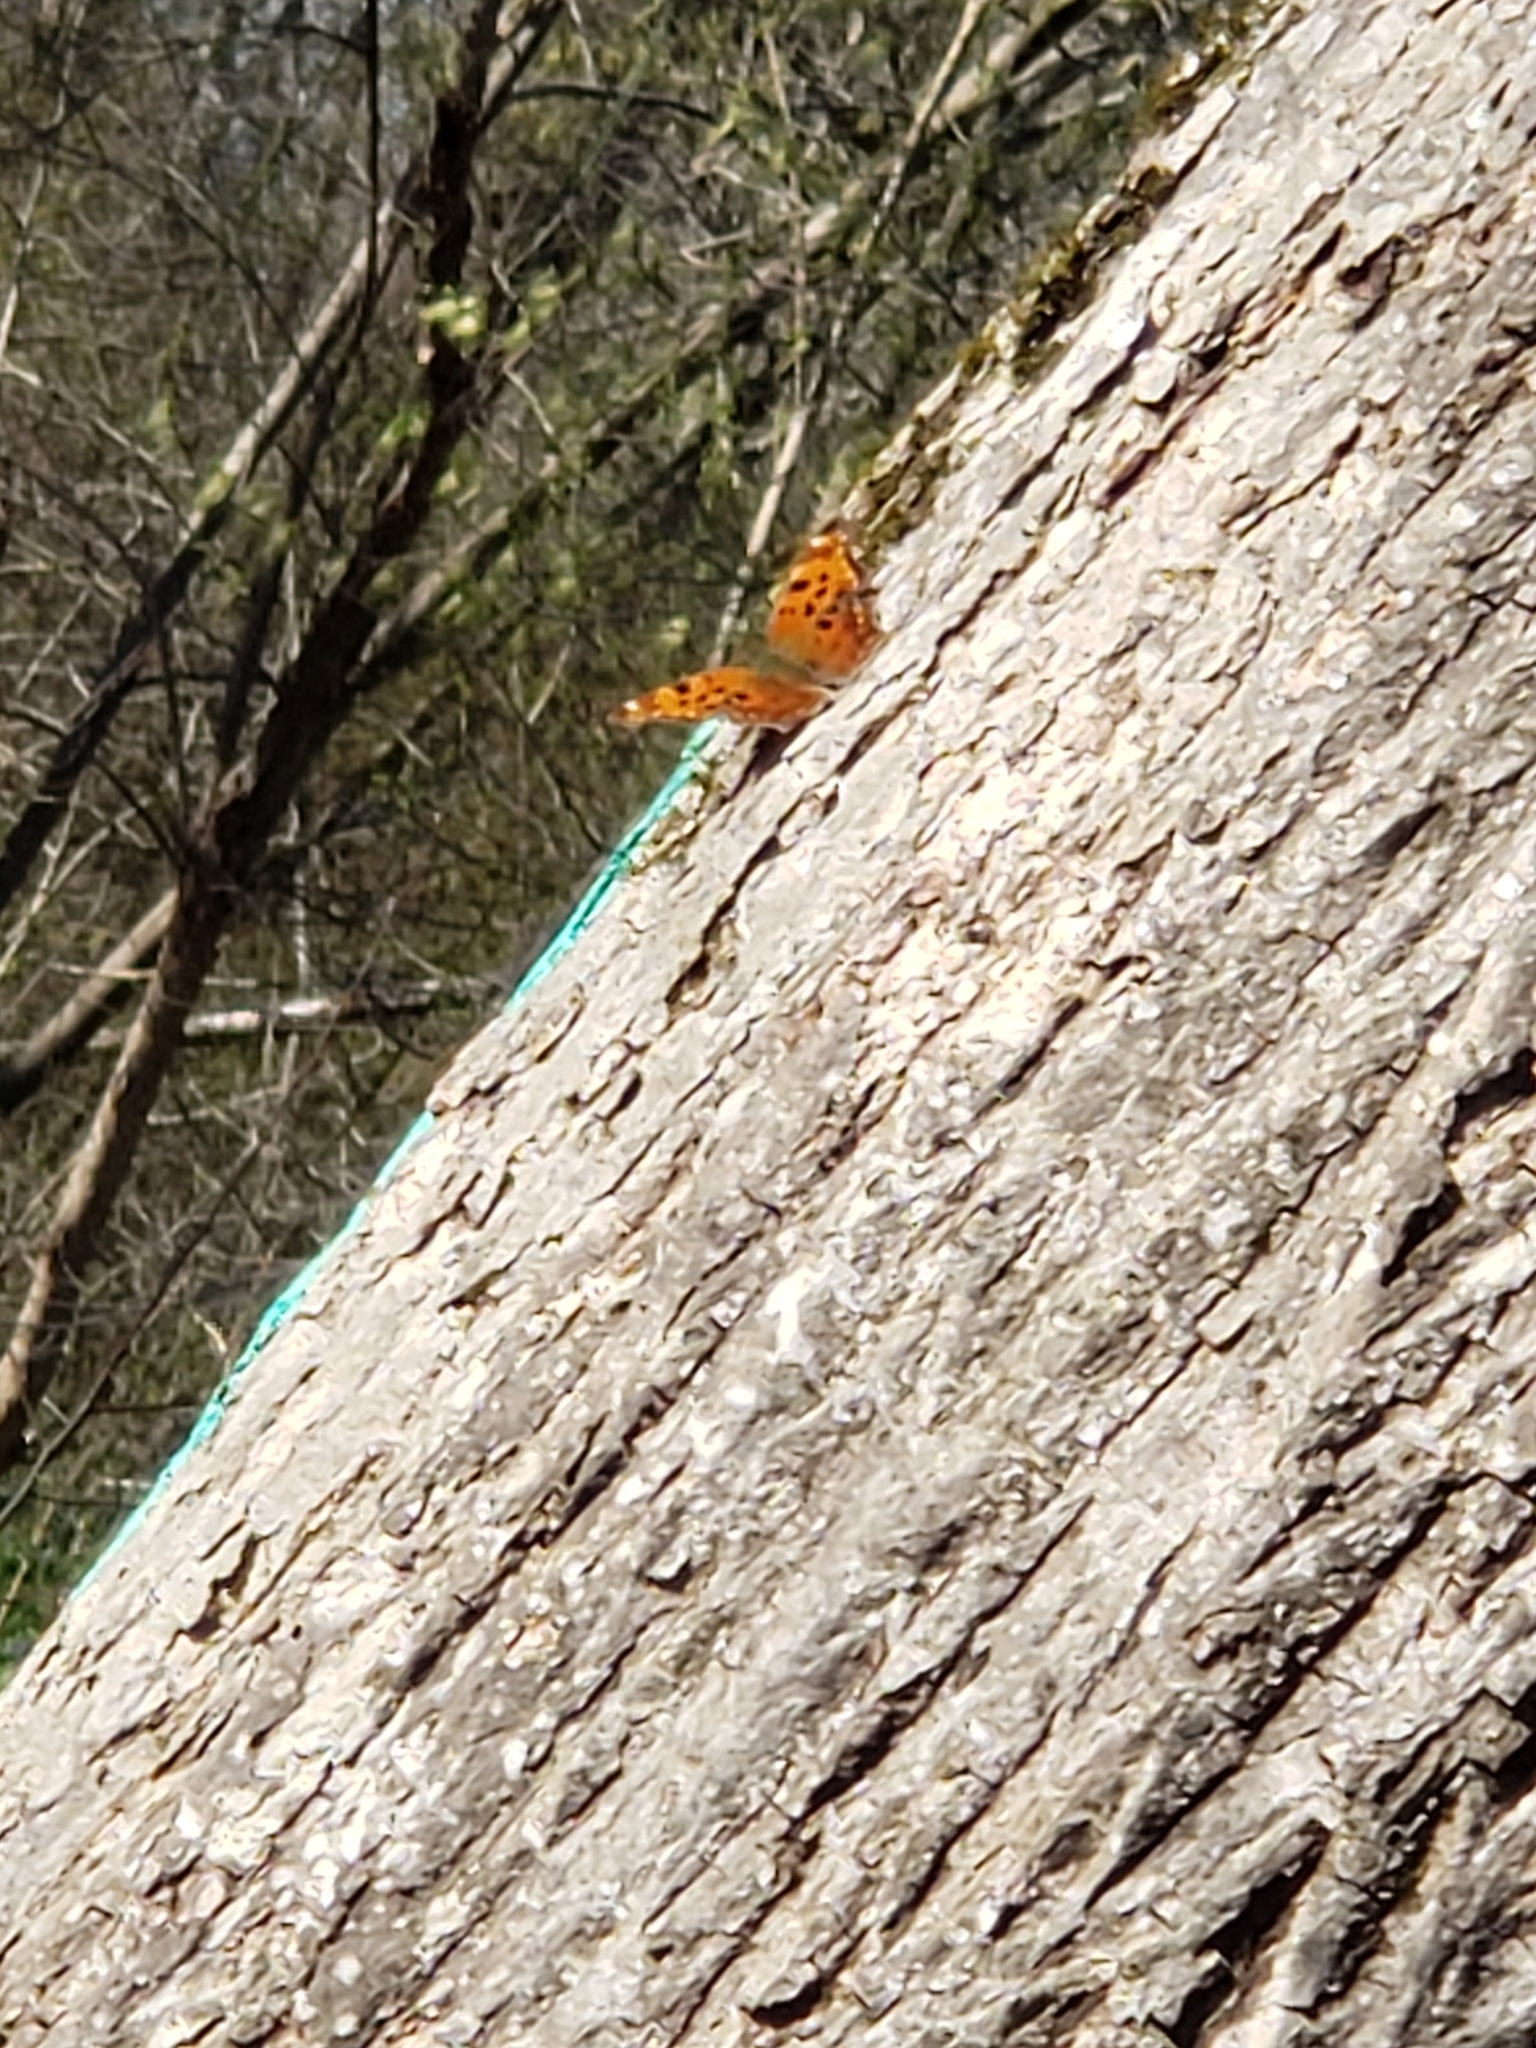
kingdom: Animalia
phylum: Arthropoda
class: Insecta
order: Lepidoptera
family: Nymphalidae
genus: Polygonia
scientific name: Polygonia comma
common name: Eastern comma
